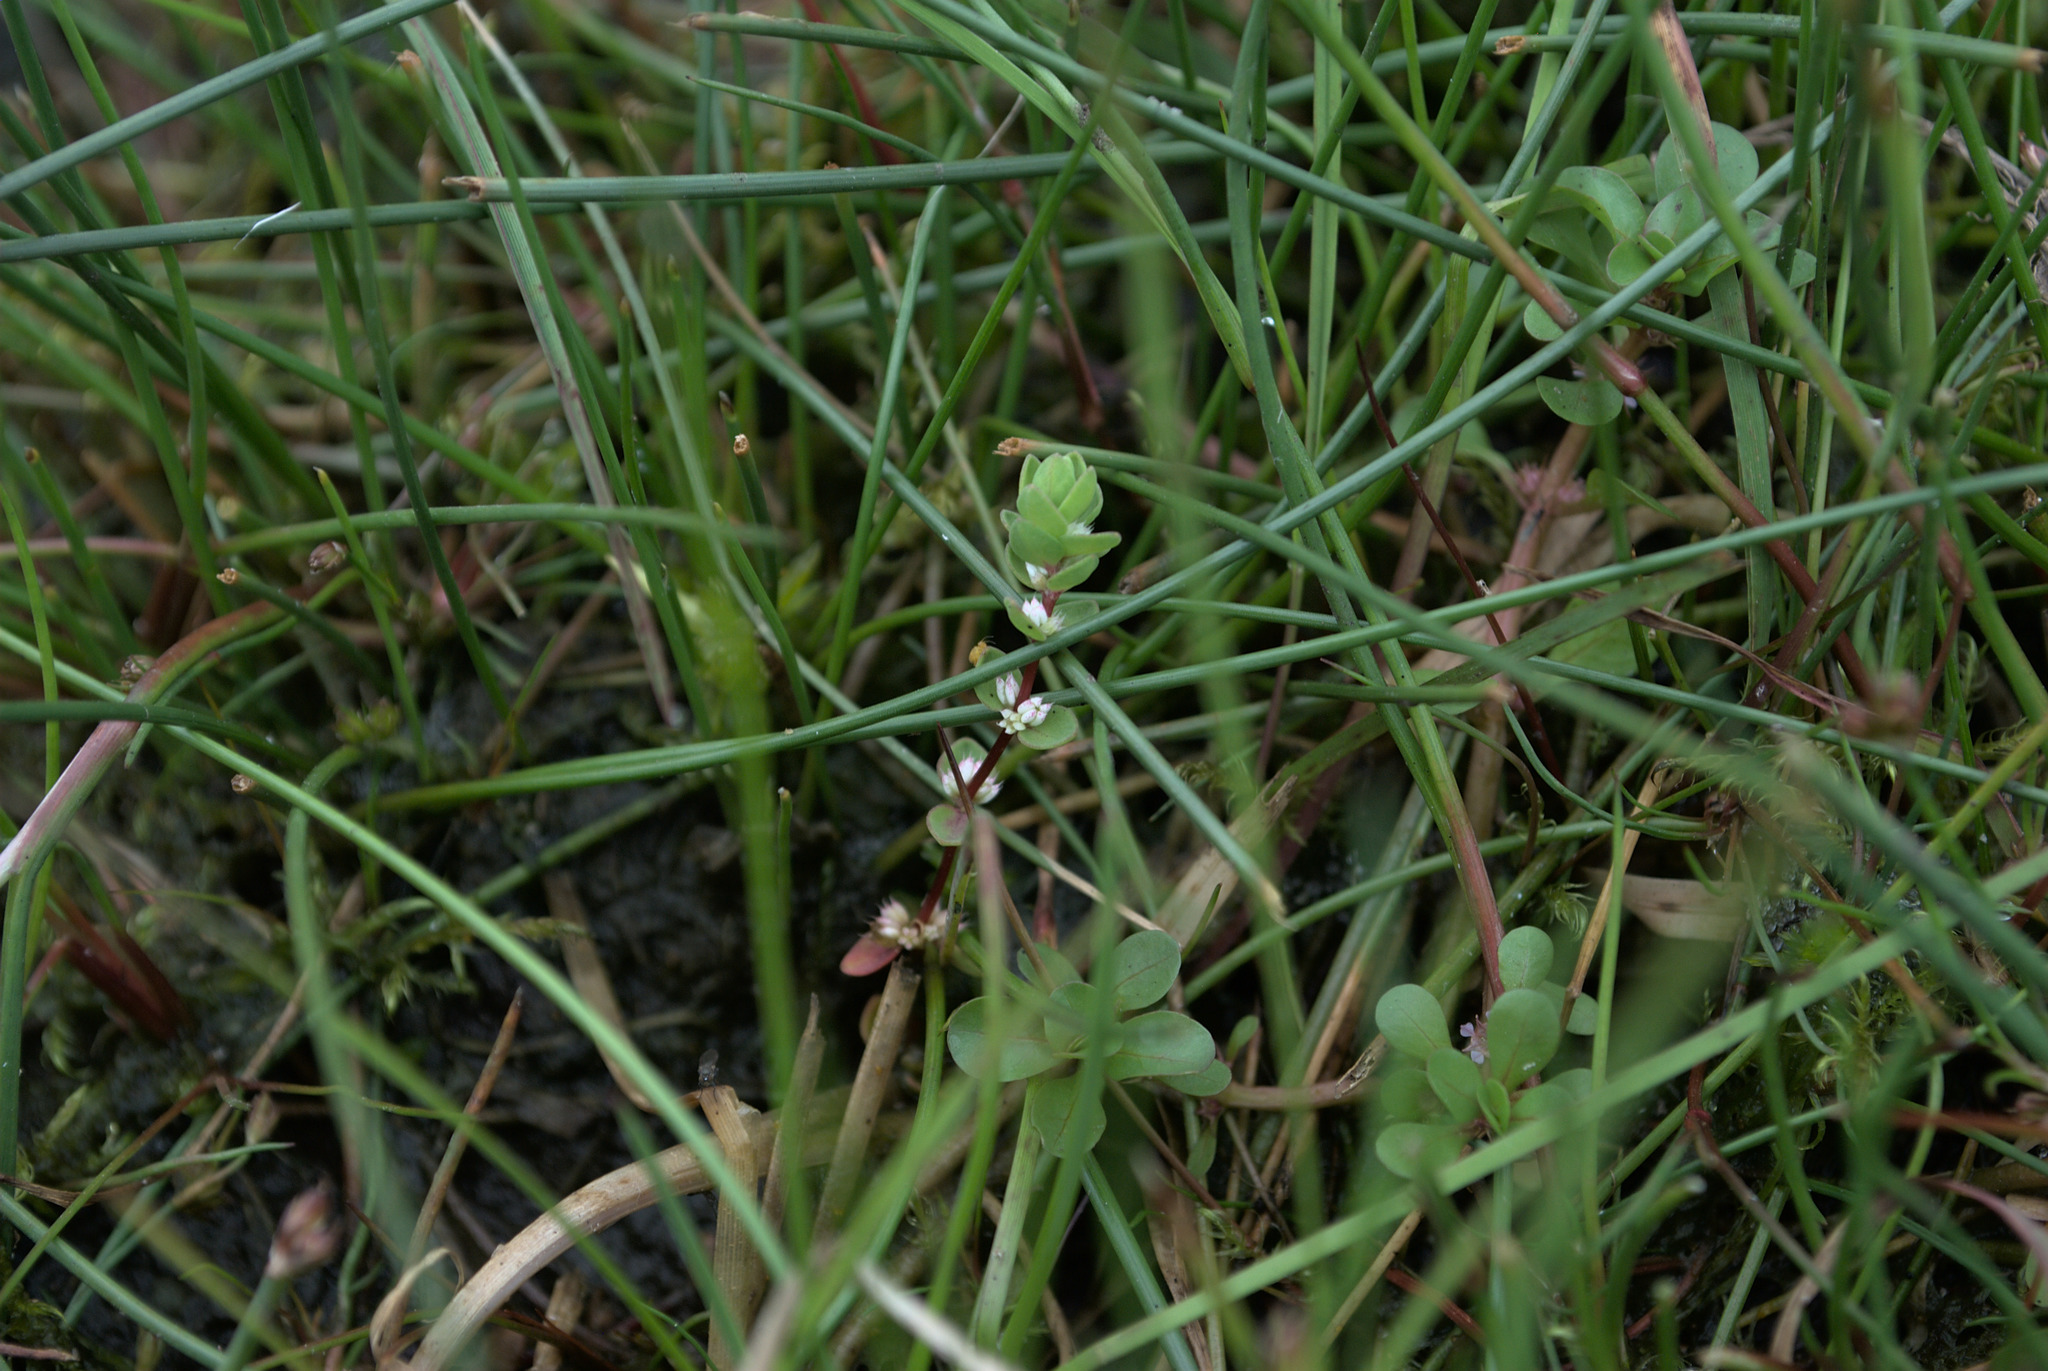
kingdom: Plantae
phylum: Tracheophyta
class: Magnoliopsida
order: Caryophyllales
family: Caryophyllaceae
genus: Illecebrum
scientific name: Illecebrum verticillatum
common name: Coral necklace
